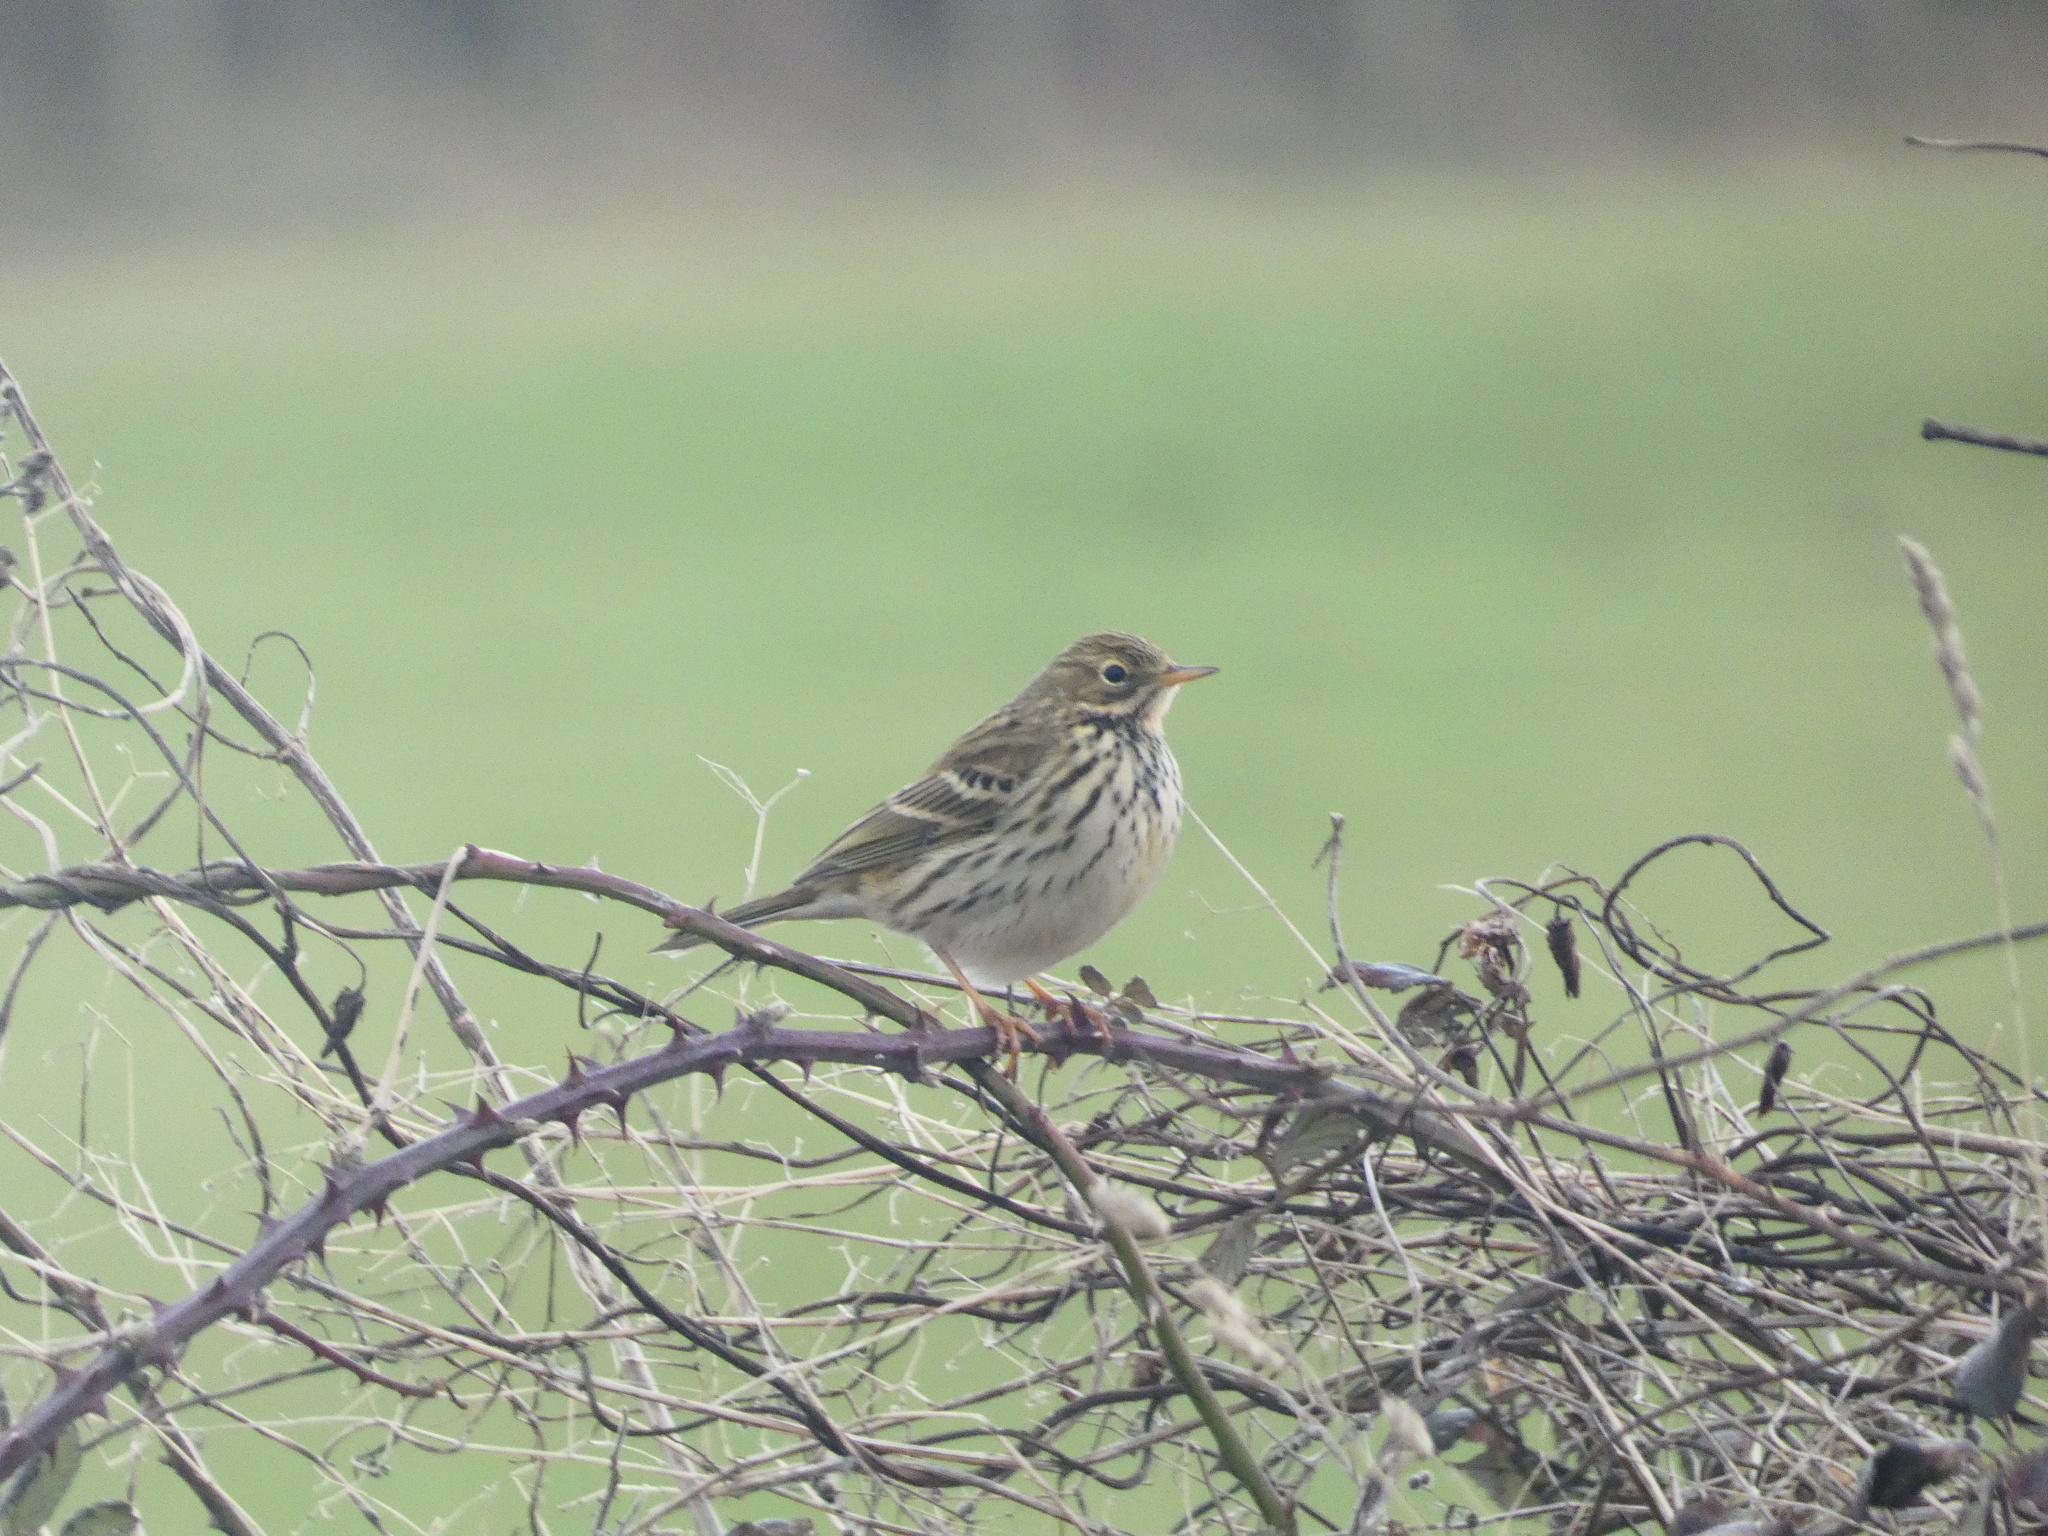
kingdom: Animalia
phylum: Chordata
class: Aves
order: Passeriformes
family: Motacillidae
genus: Anthus
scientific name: Anthus pratensis
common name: Meadow pipit
